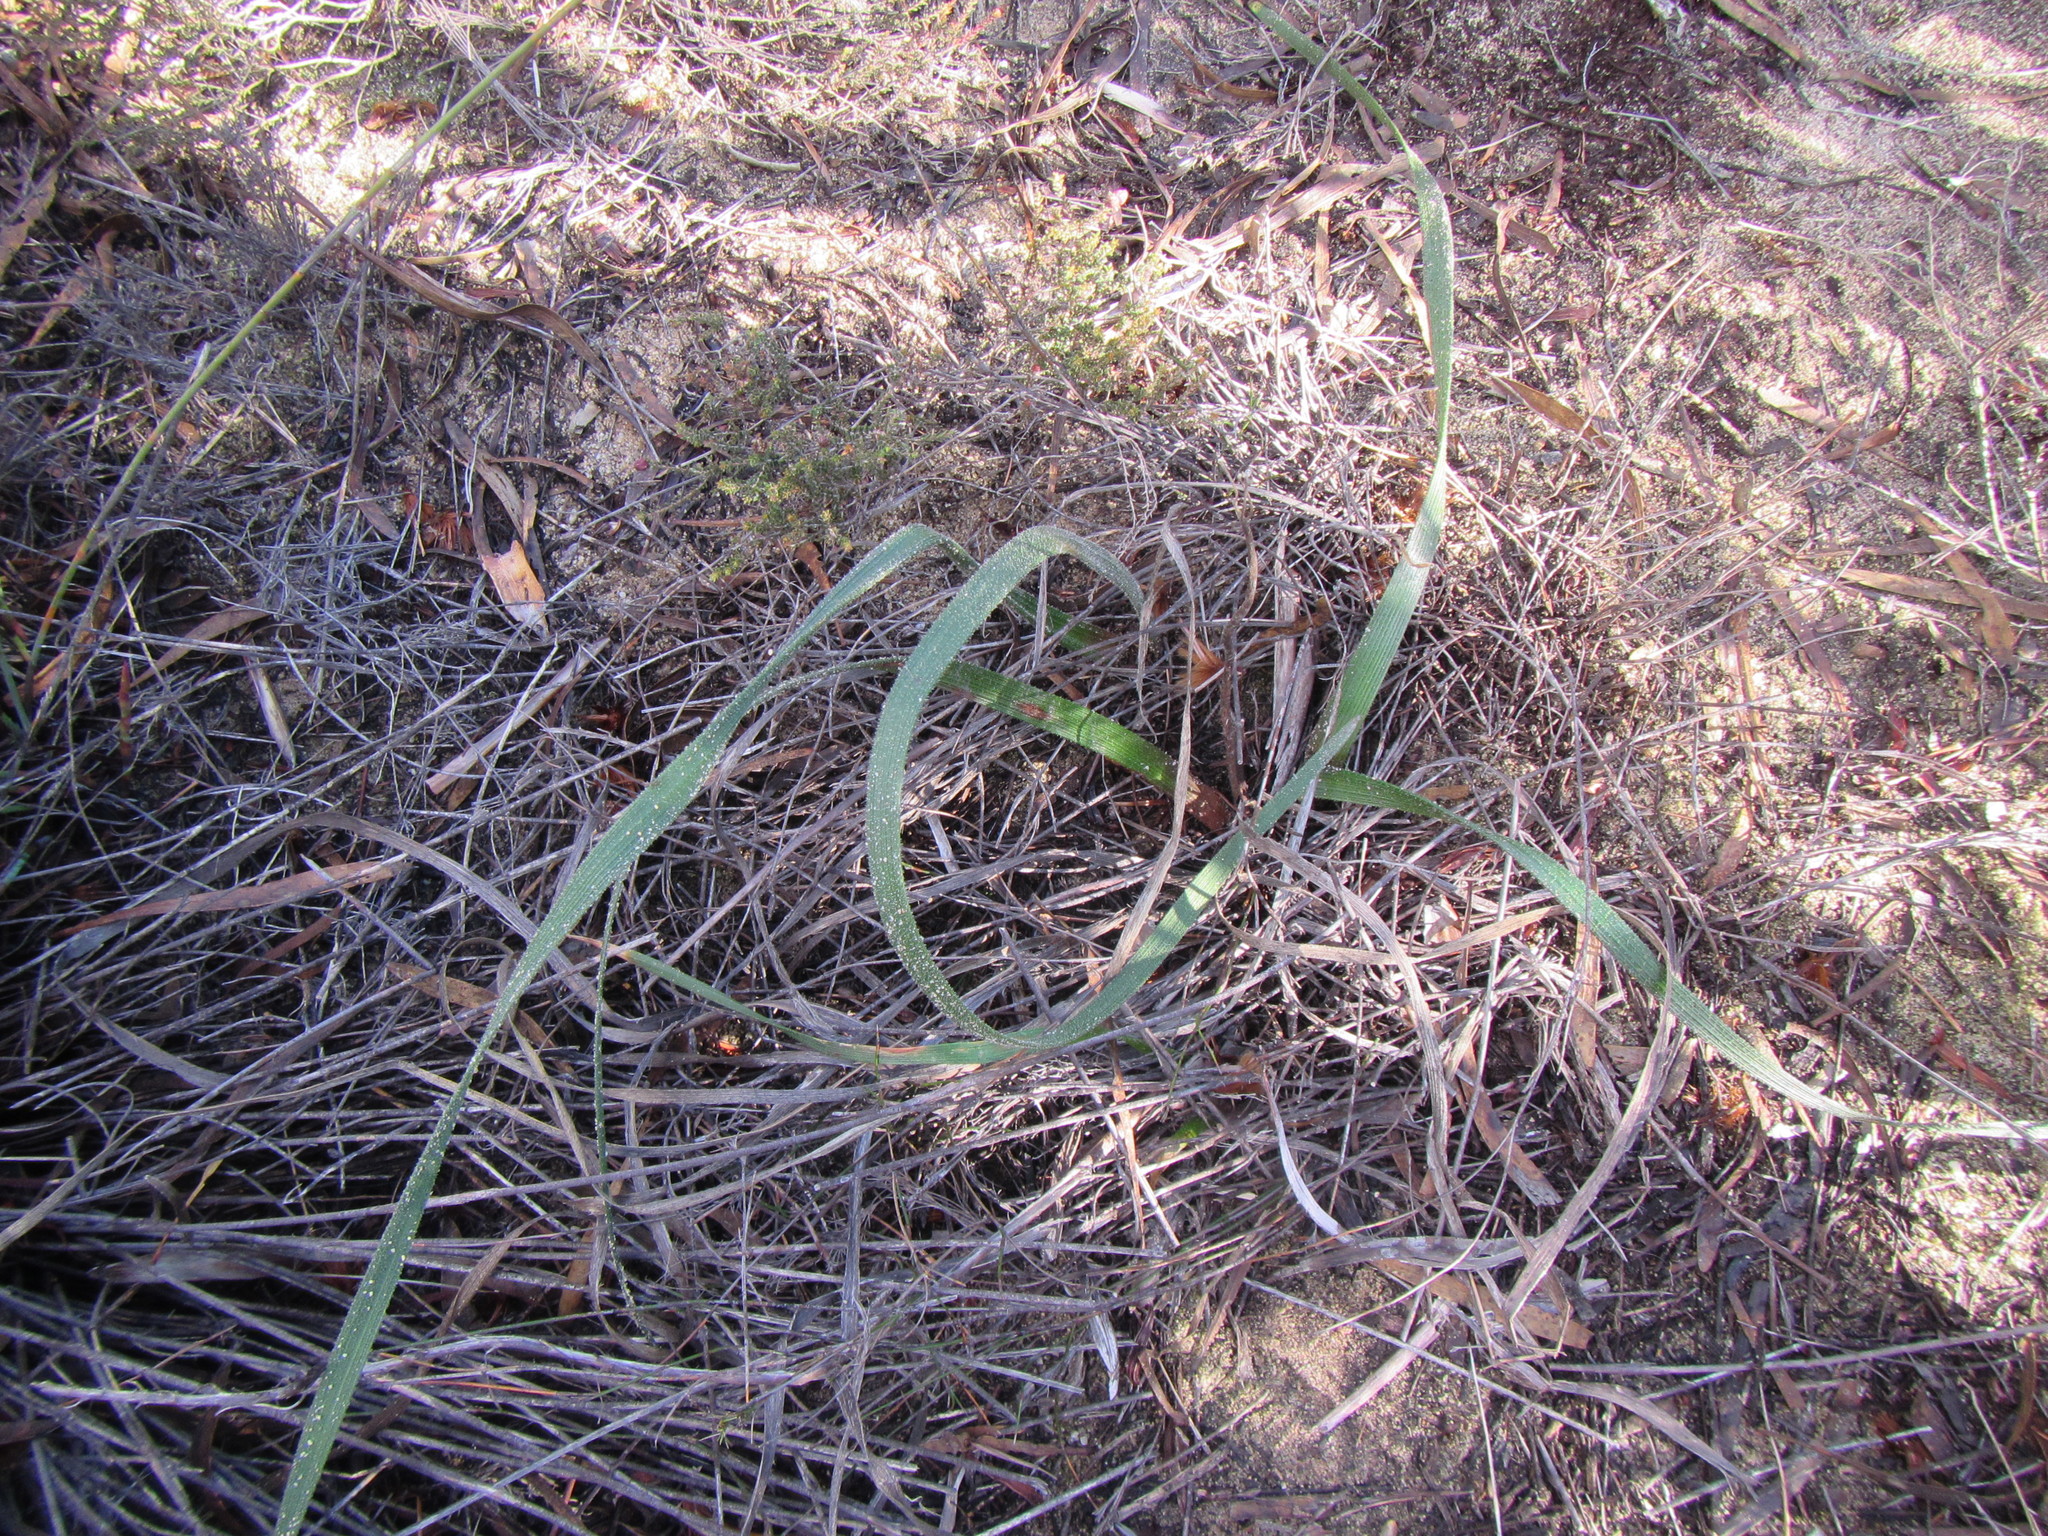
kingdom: Plantae
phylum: Tracheophyta
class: Liliopsida
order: Asparagales
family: Asphodelaceae
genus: Trachyandra
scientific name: Trachyandra montana
